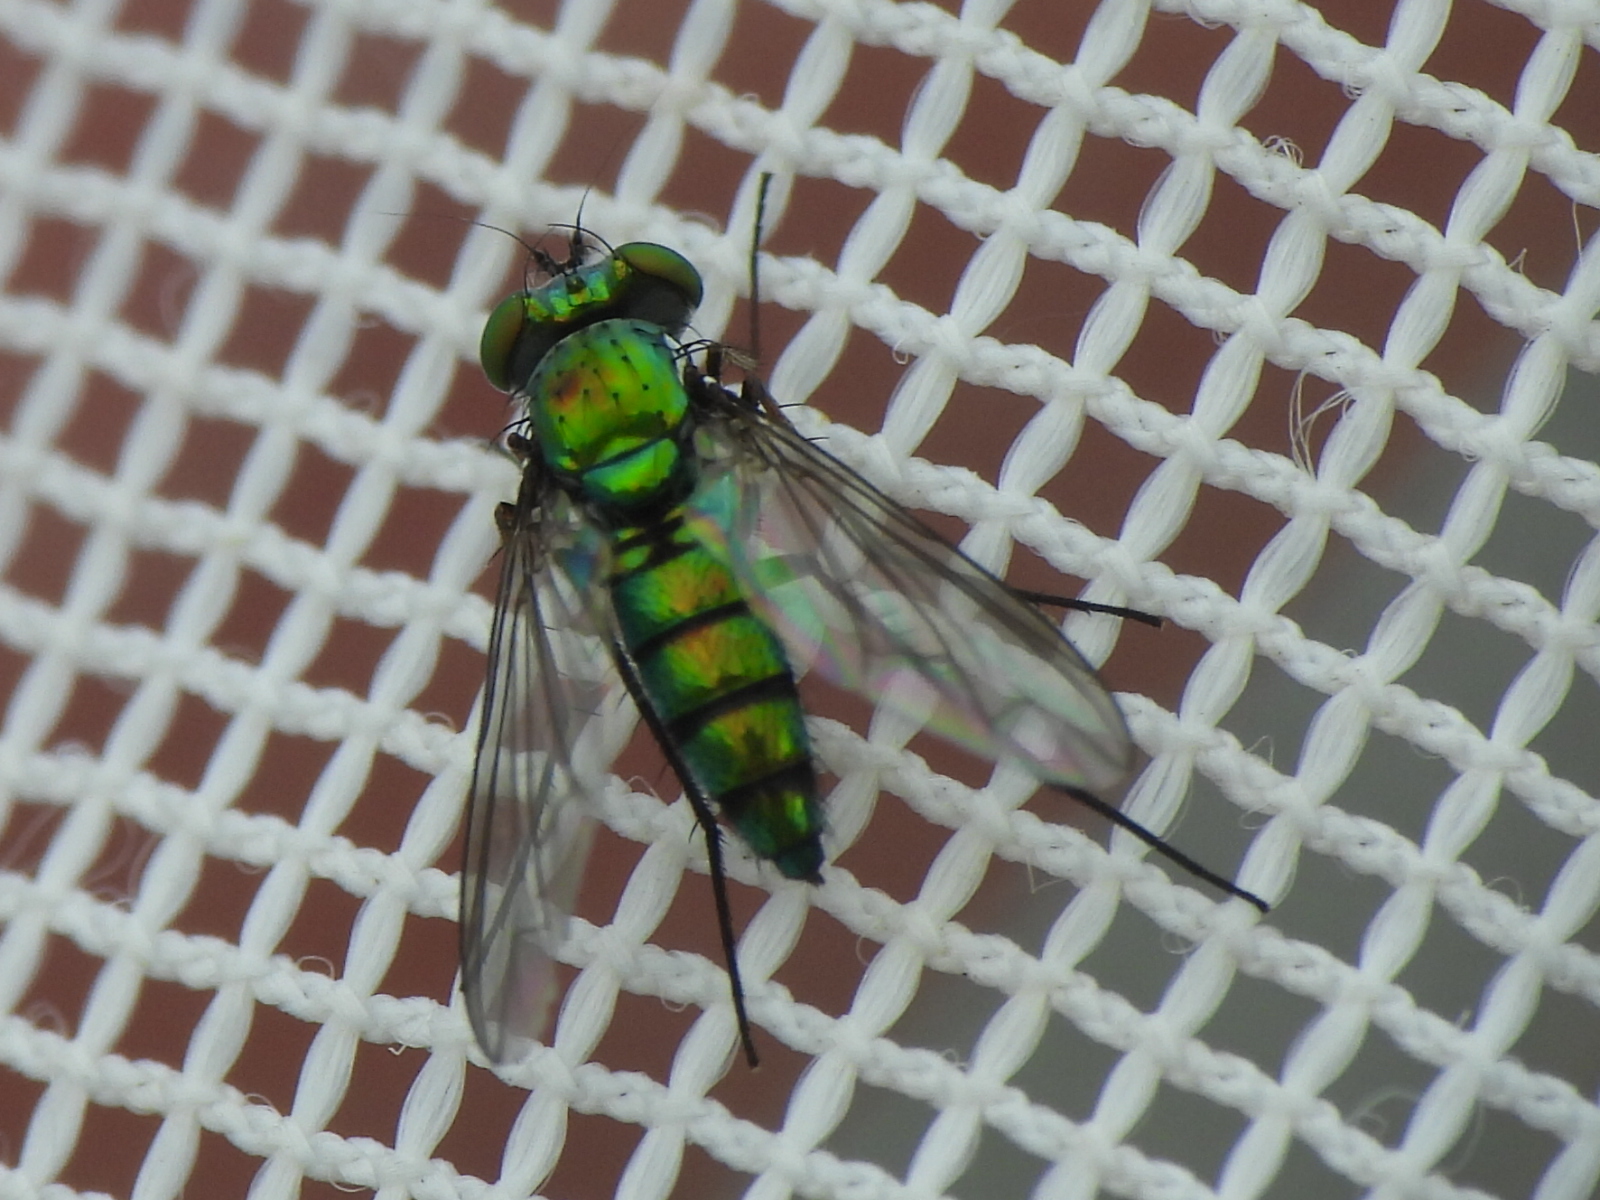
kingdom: Animalia
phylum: Arthropoda
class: Insecta
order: Diptera
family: Dolichopodidae
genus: Condylostylus
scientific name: Condylostylus longicornis
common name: Long-legged fly
